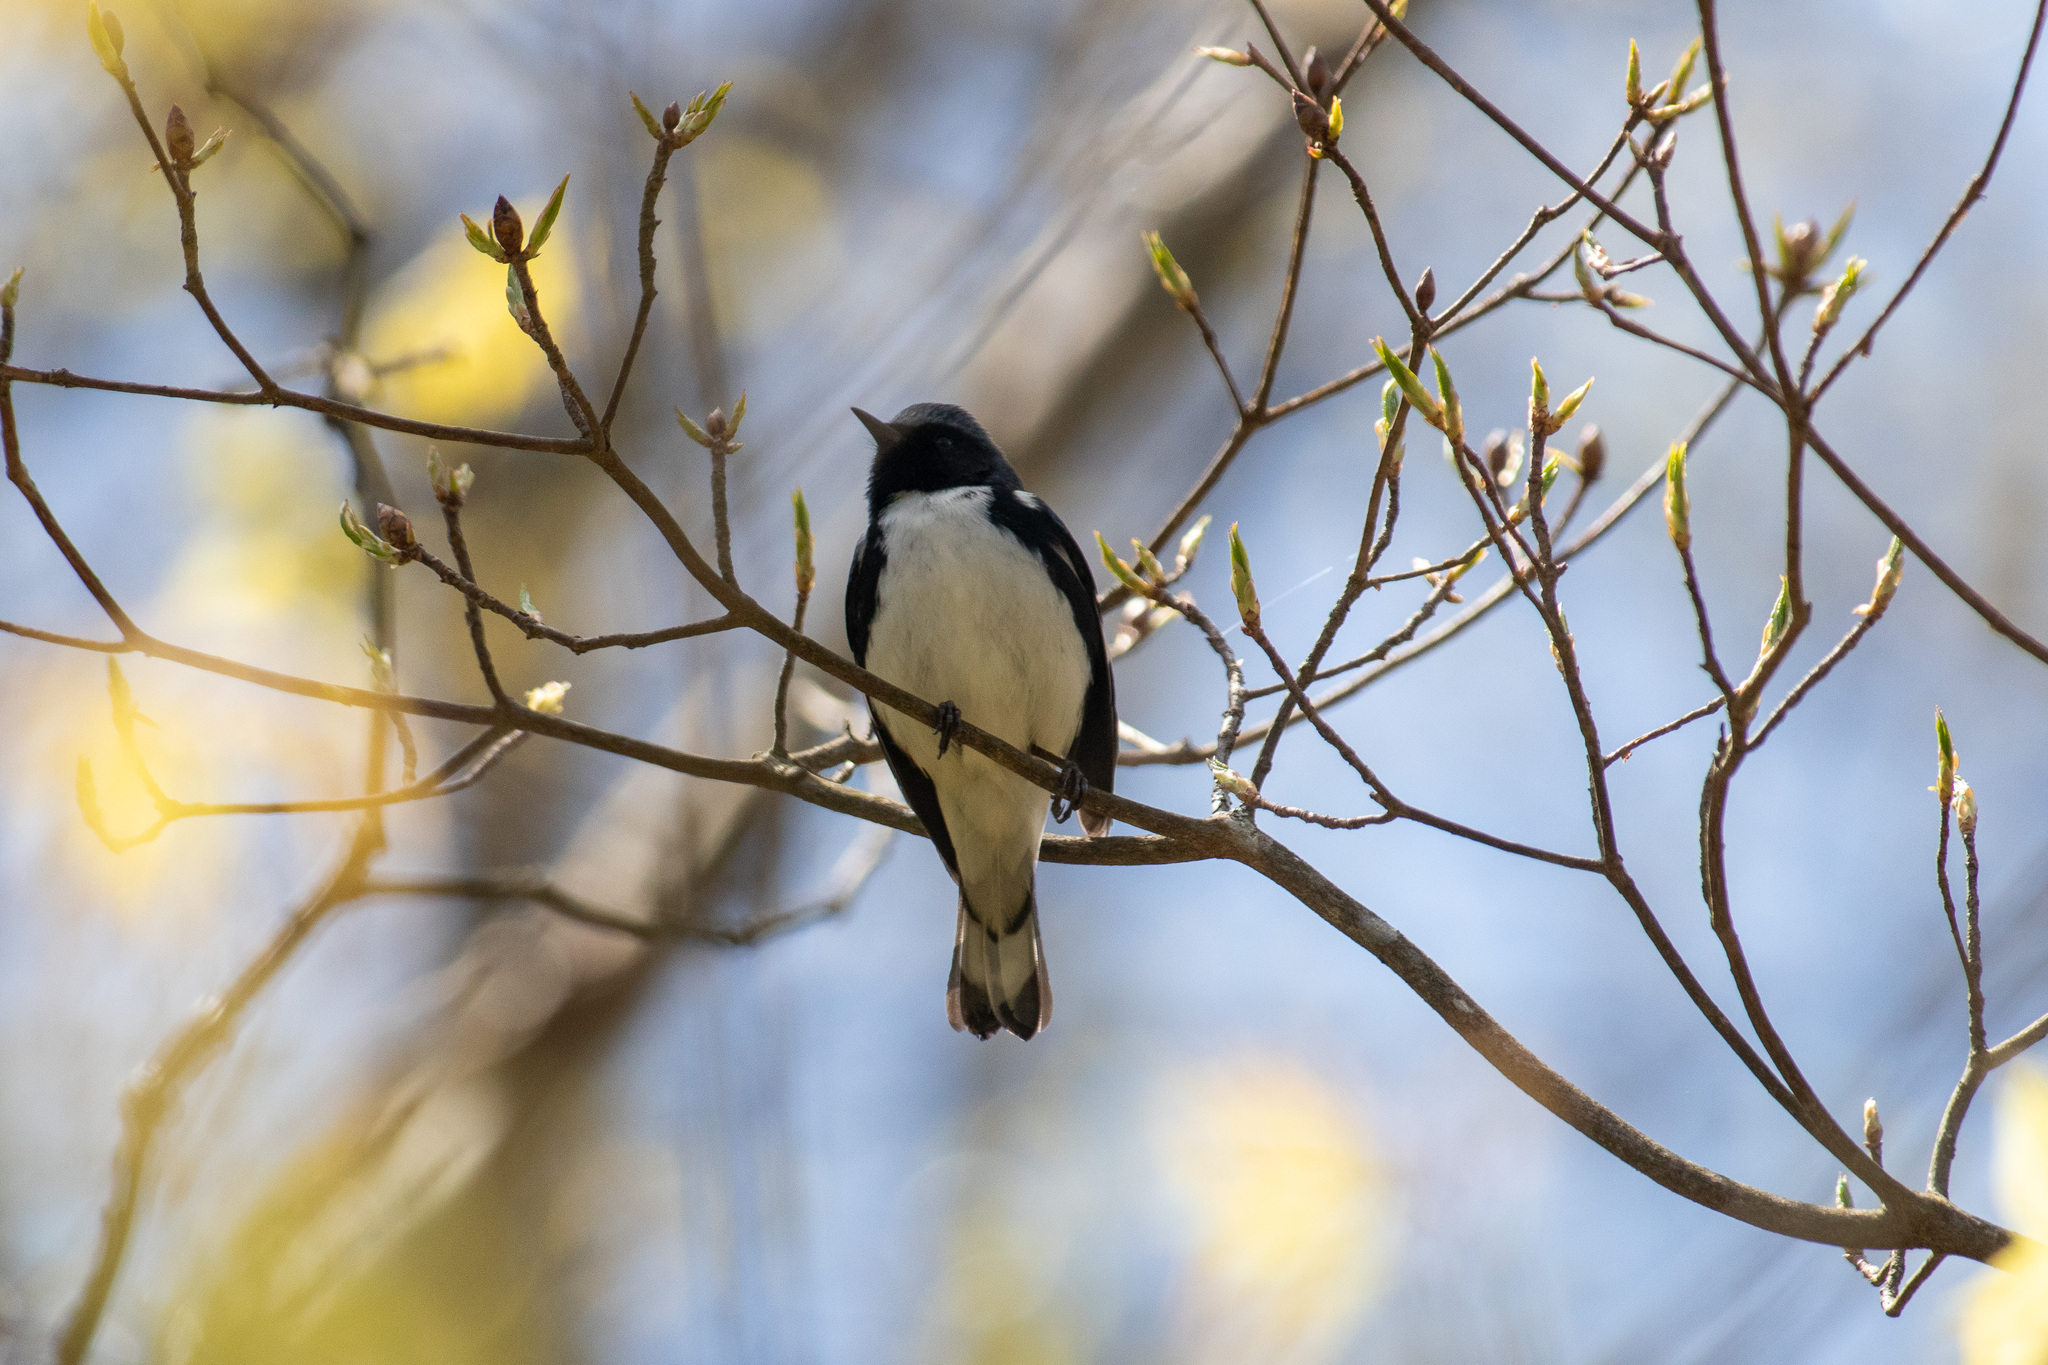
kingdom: Animalia
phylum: Chordata
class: Aves
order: Passeriformes
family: Parulidae
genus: Setophaga
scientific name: Setophaga caerulescens
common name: Black-throated blue warbler
